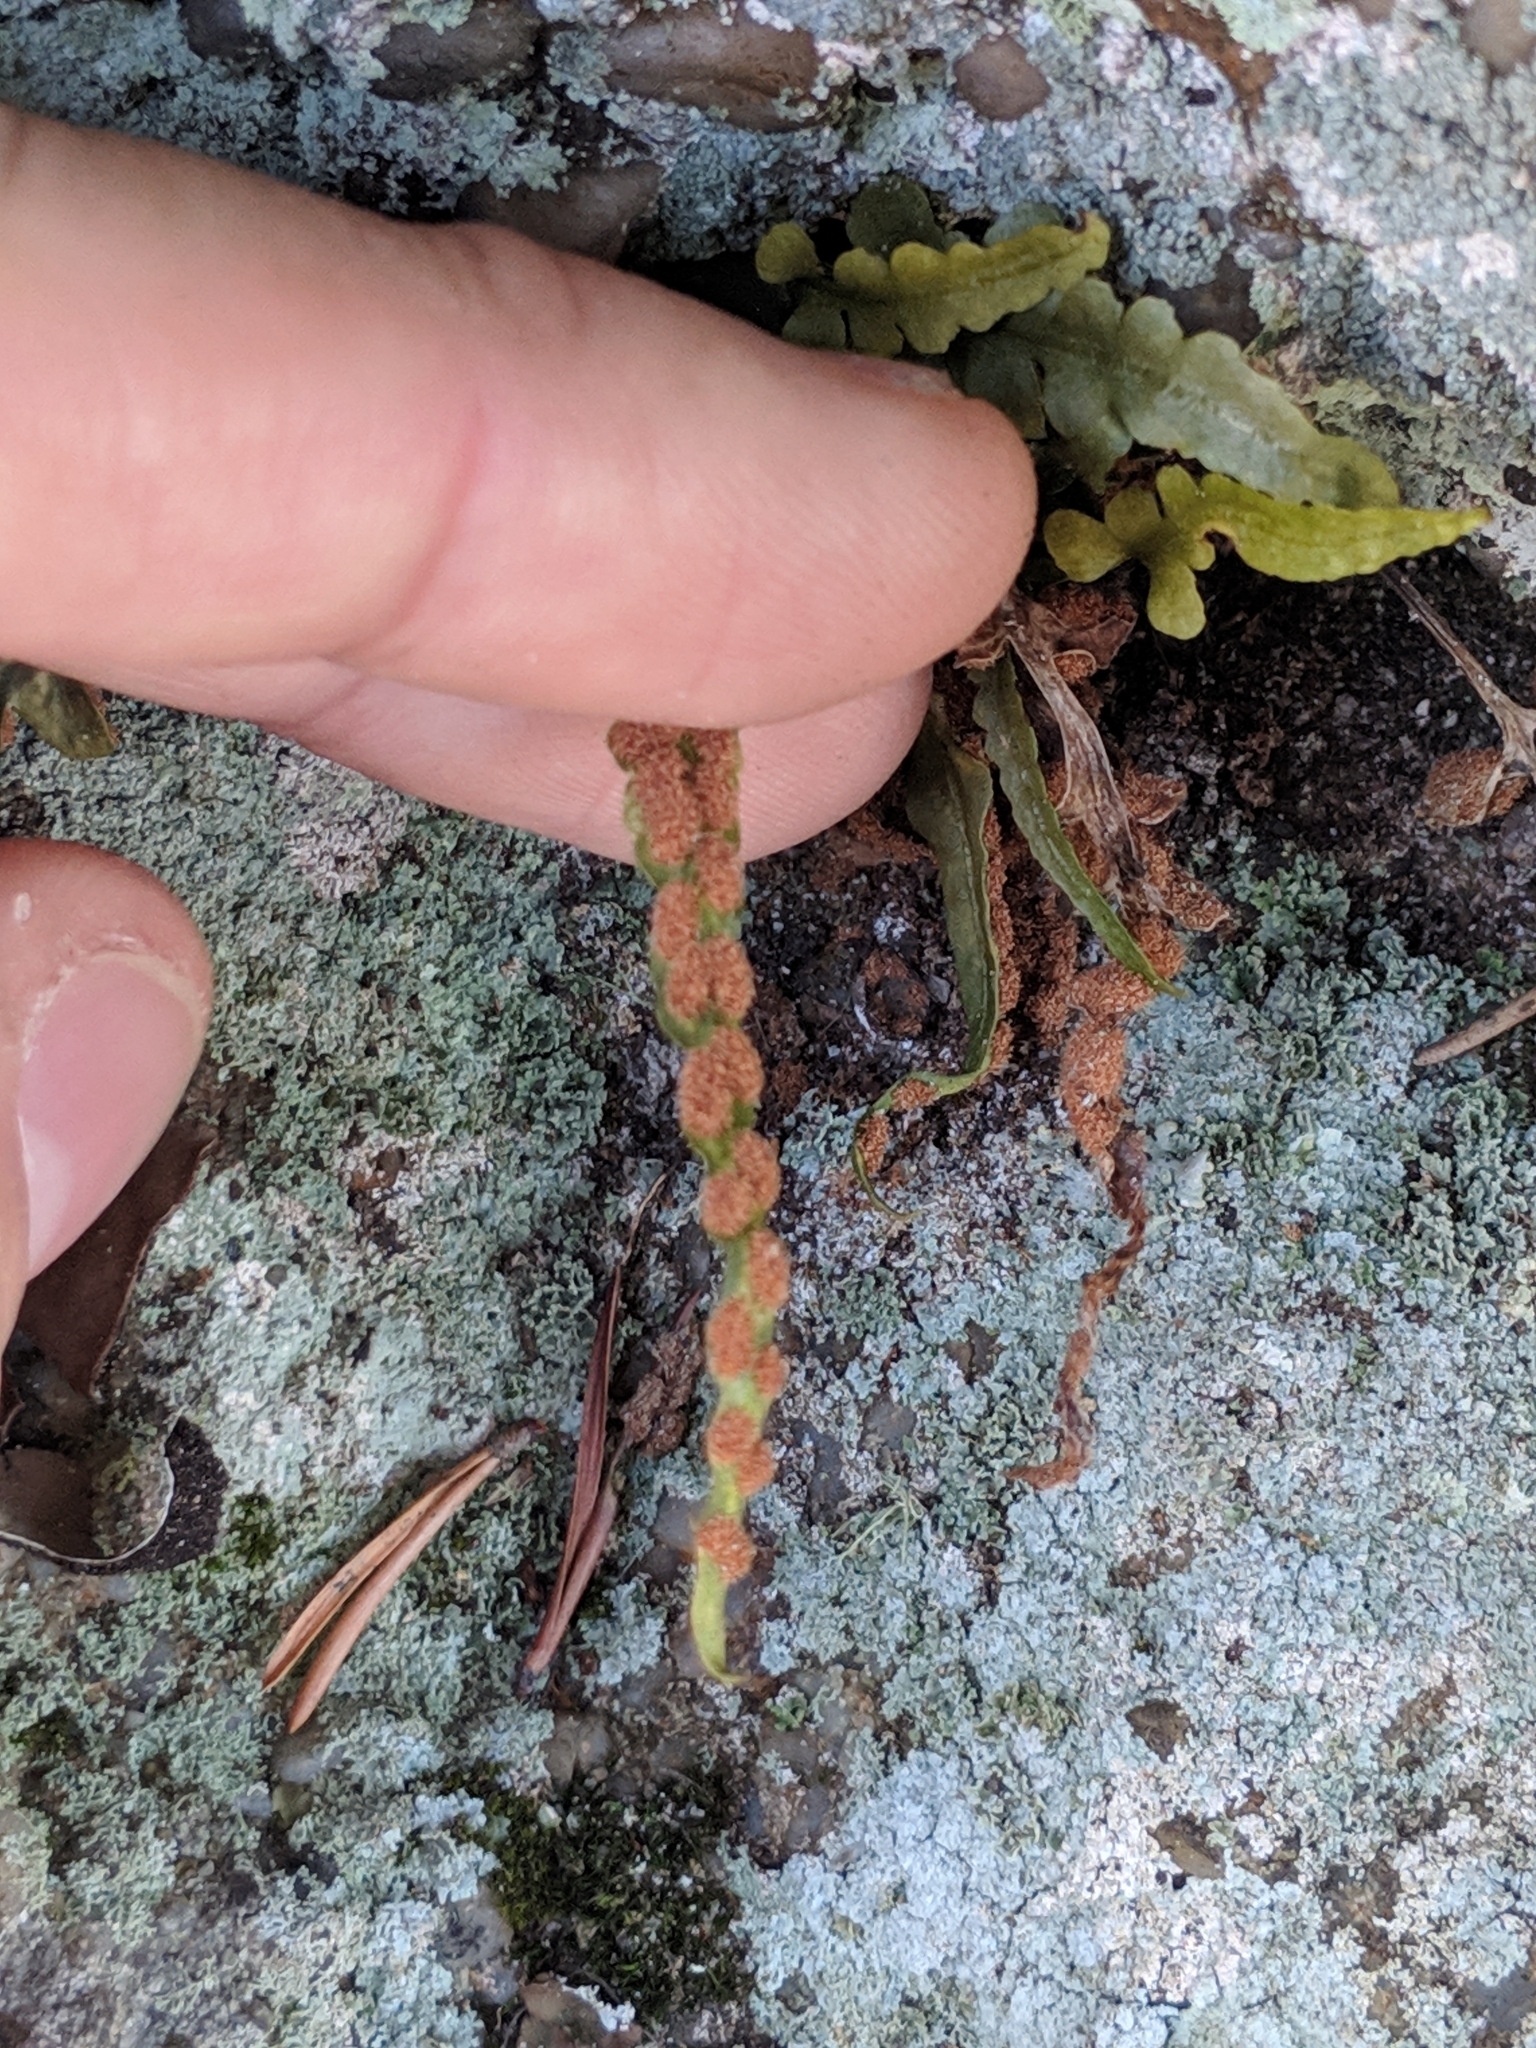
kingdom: Plantae
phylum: Tracheophyta
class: Polypodiopsida
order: Polypodiales
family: Aspleniaceae
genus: Asplenium
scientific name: Asplenium pinnatifidum
